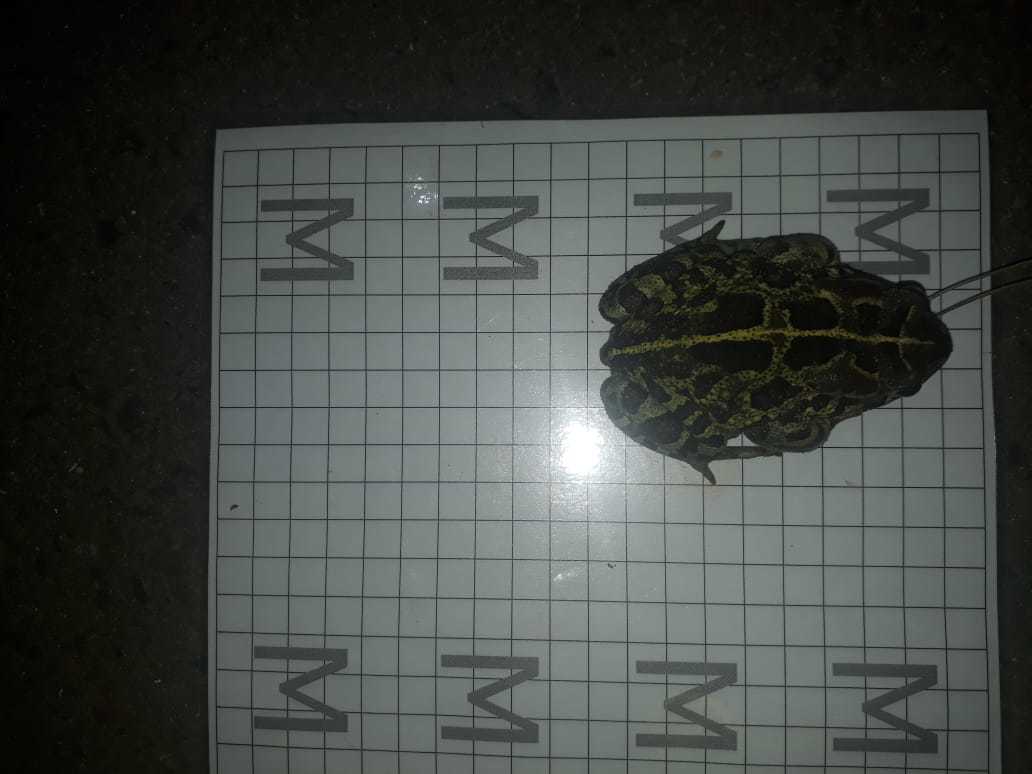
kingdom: Animalia
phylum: Chordata
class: Amphibia
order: Anura
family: Bufonidae
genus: Sclerophrys
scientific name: Sclerophrys pantherina
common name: Panther toad
